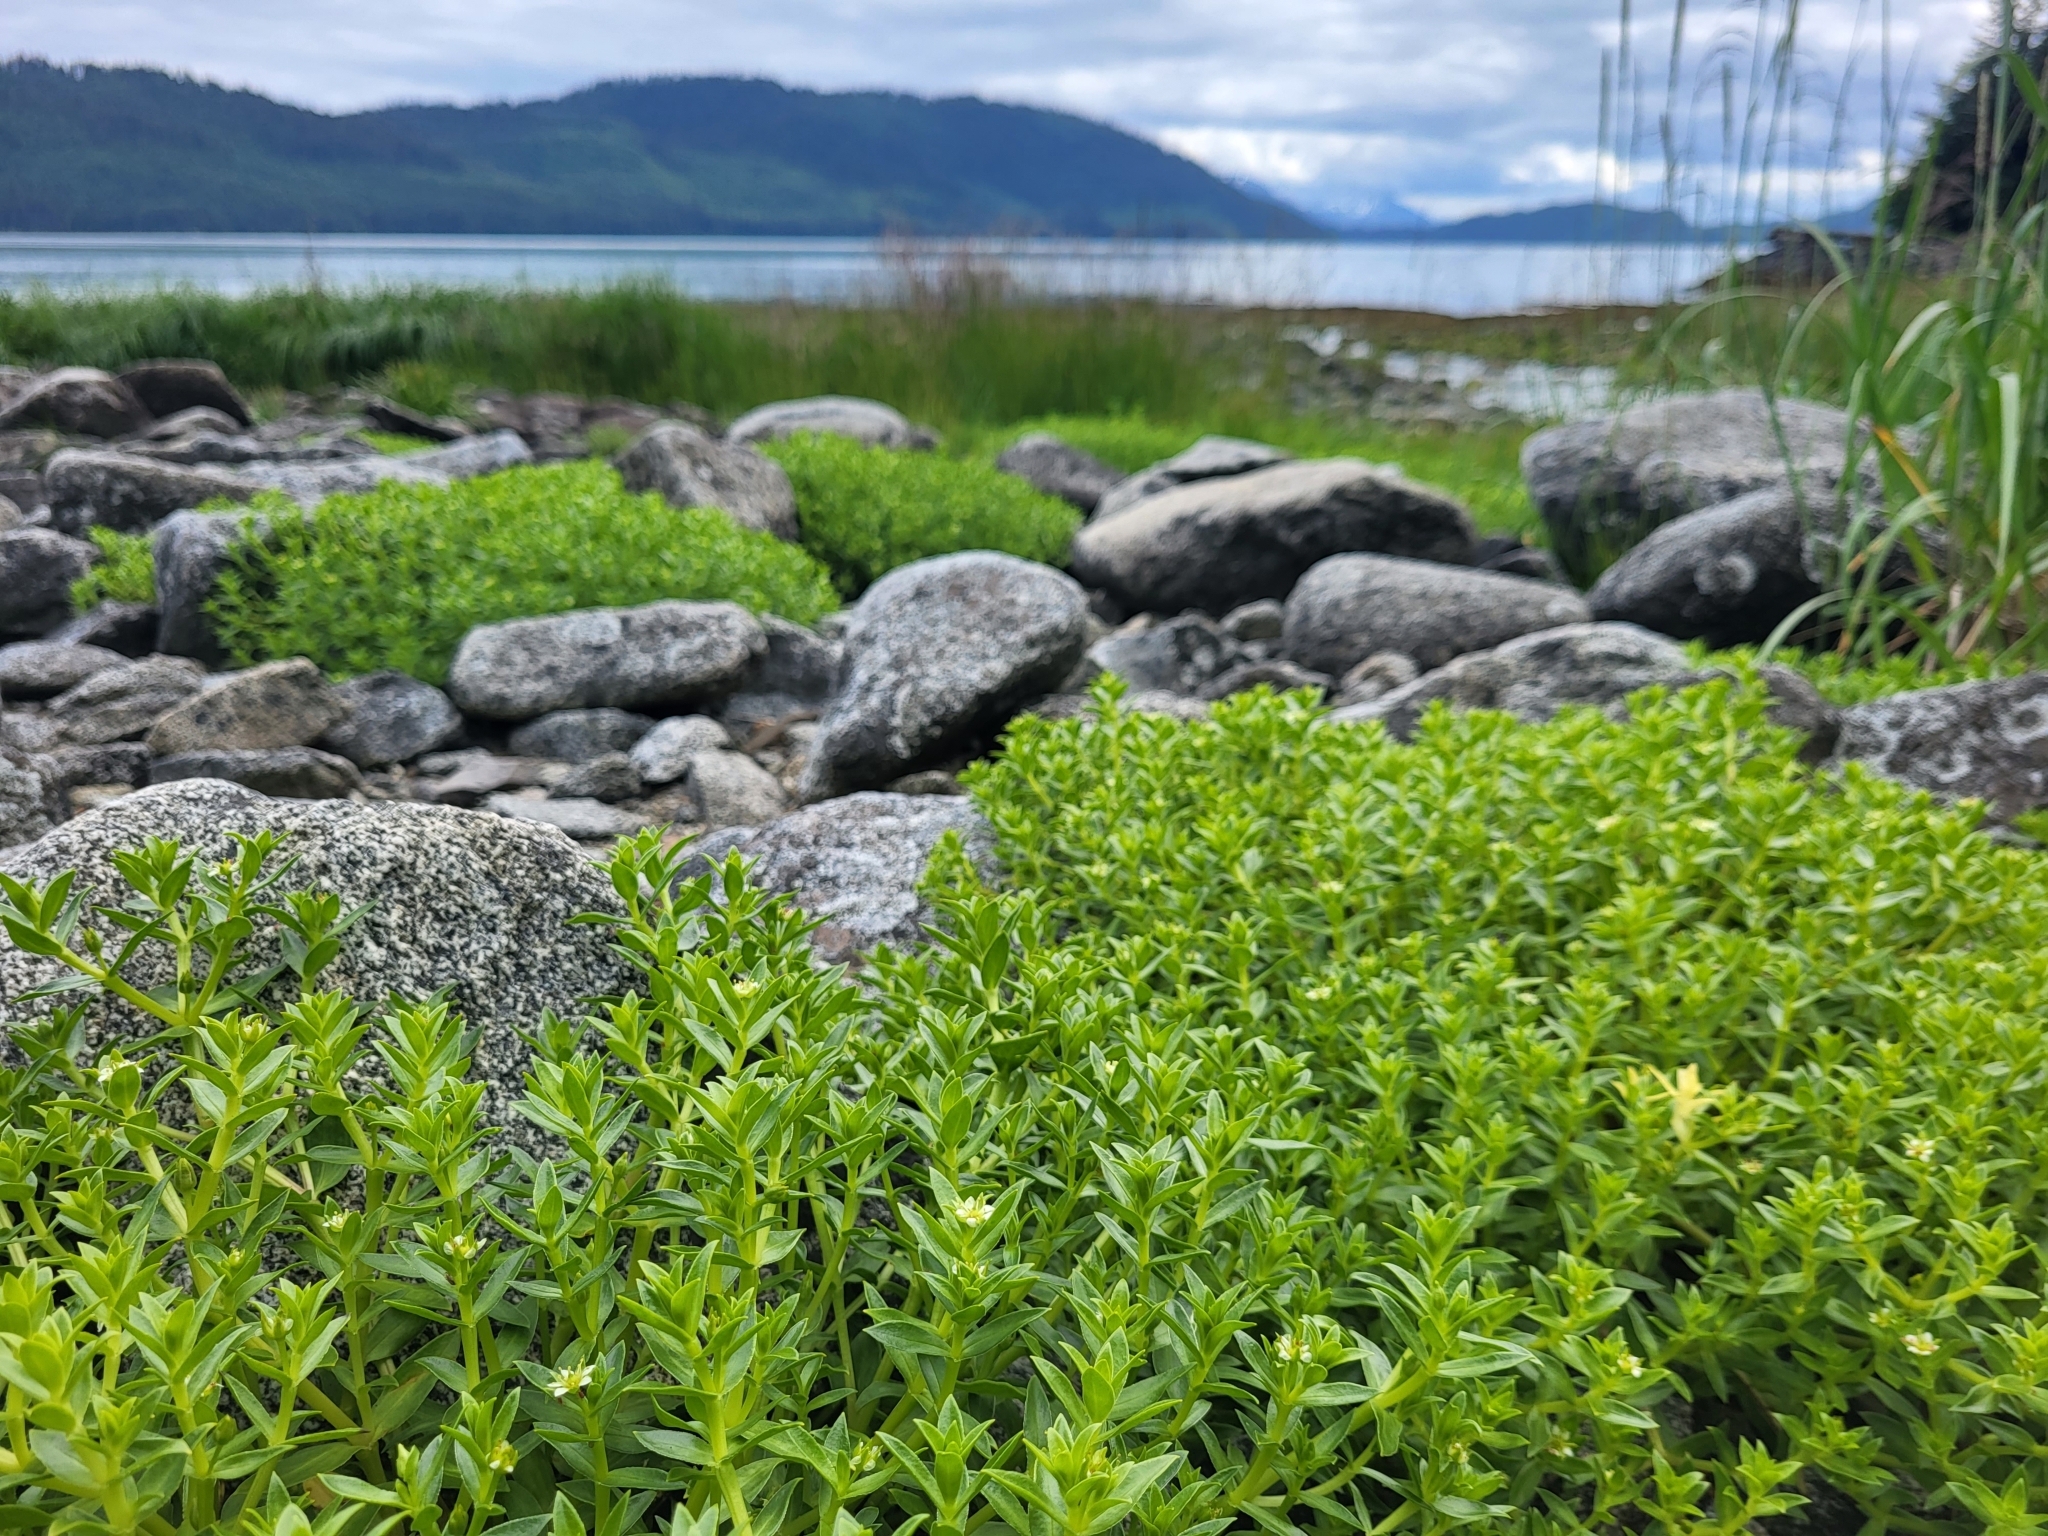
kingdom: Plantae
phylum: Tracheophyta
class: Magnoliopsida
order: Caryophyllales
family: Caryophyllaceae
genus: Honckenya
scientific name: Honckenya peploides
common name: Sea sandwort
